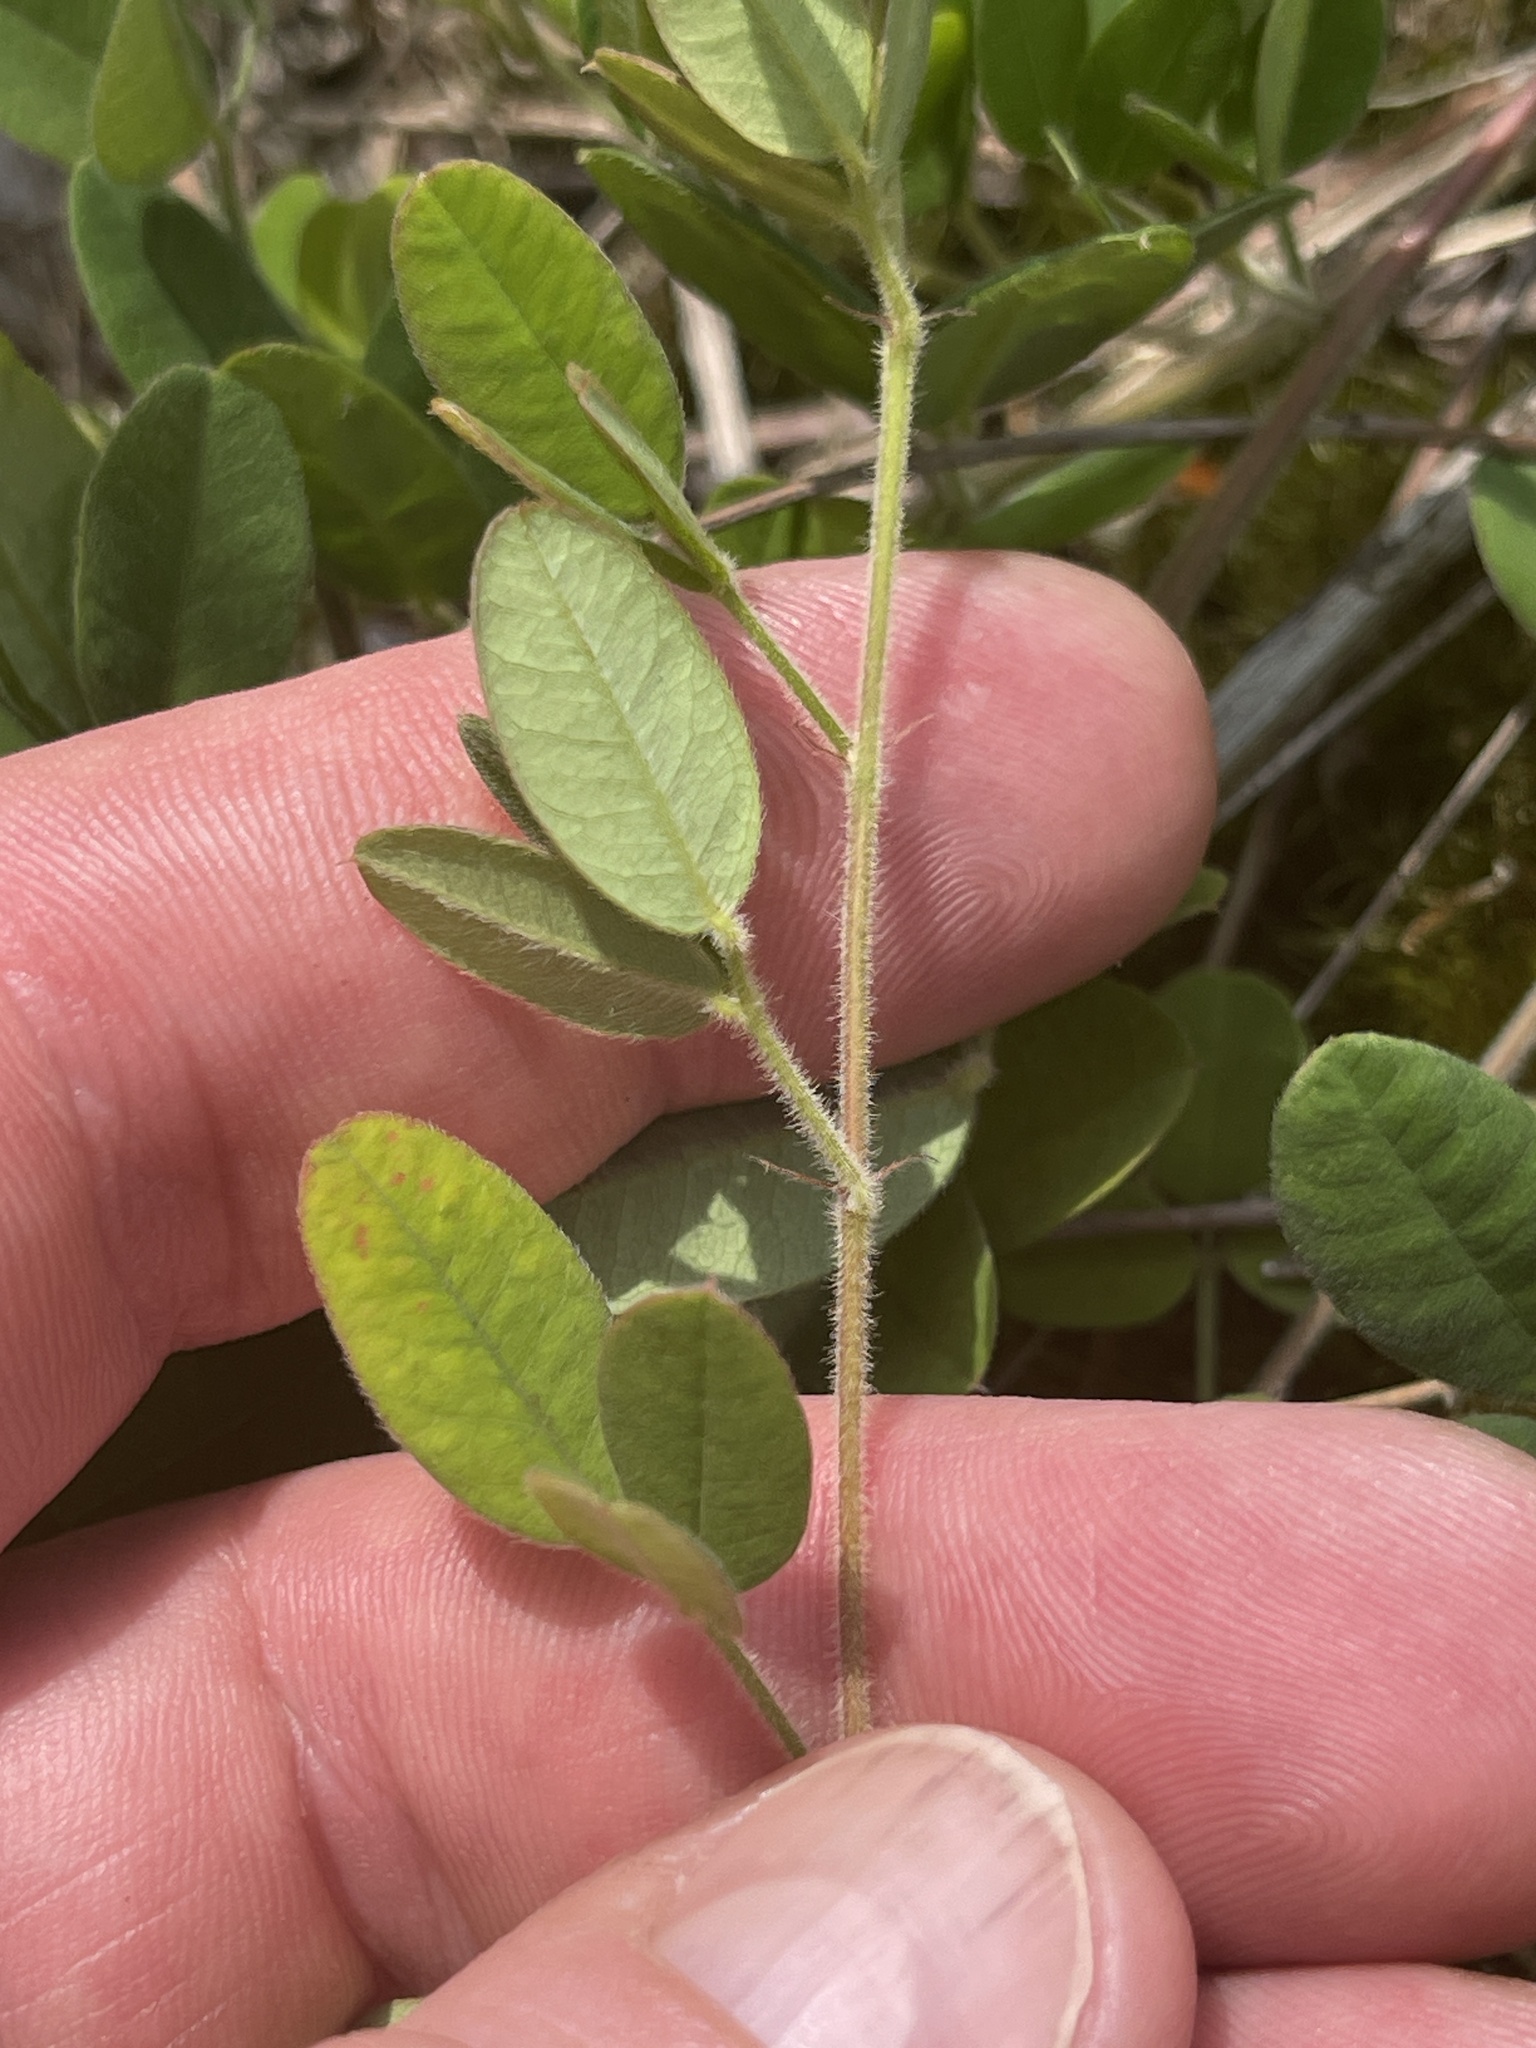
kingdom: Plantae
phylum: Tracheophyta
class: Magnoliopsida
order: Fabales
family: Fabaceae
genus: Lespedeza
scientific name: Lespedeza procumbens
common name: Downy trailing bush-clover
